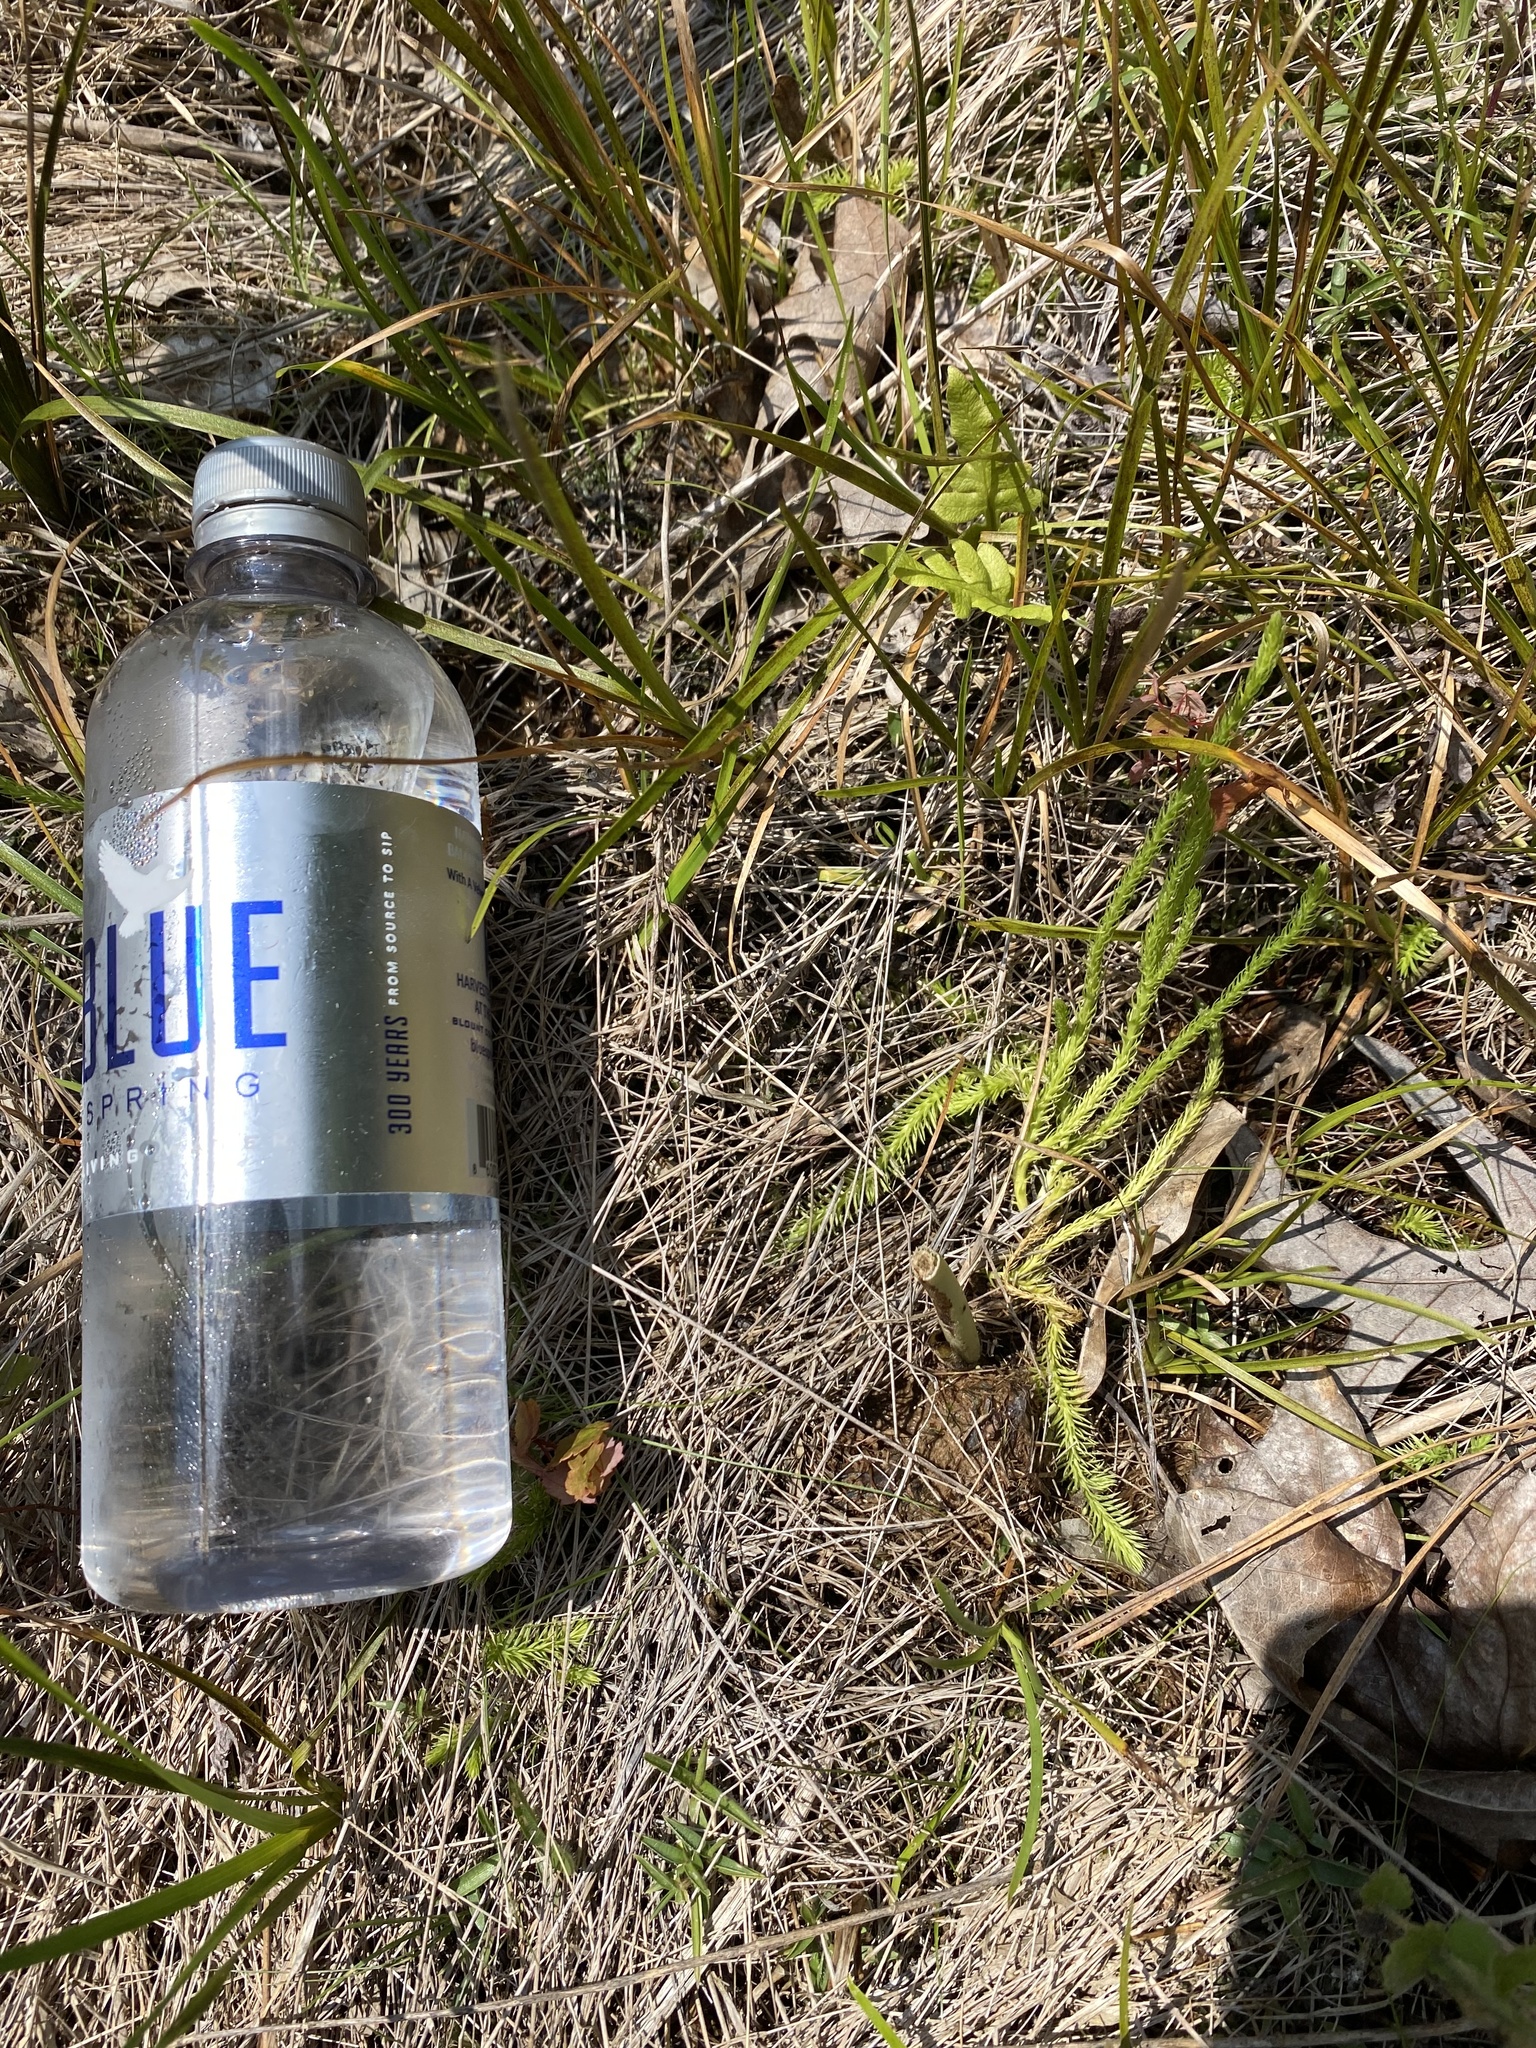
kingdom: Plantae
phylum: Tracheophyta
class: Lycopodiopsida
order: Lycopodiales
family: Lycopodiaceae
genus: Lycopodiella
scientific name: Lycopodiella appressa
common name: Appressed bog clubmoss
